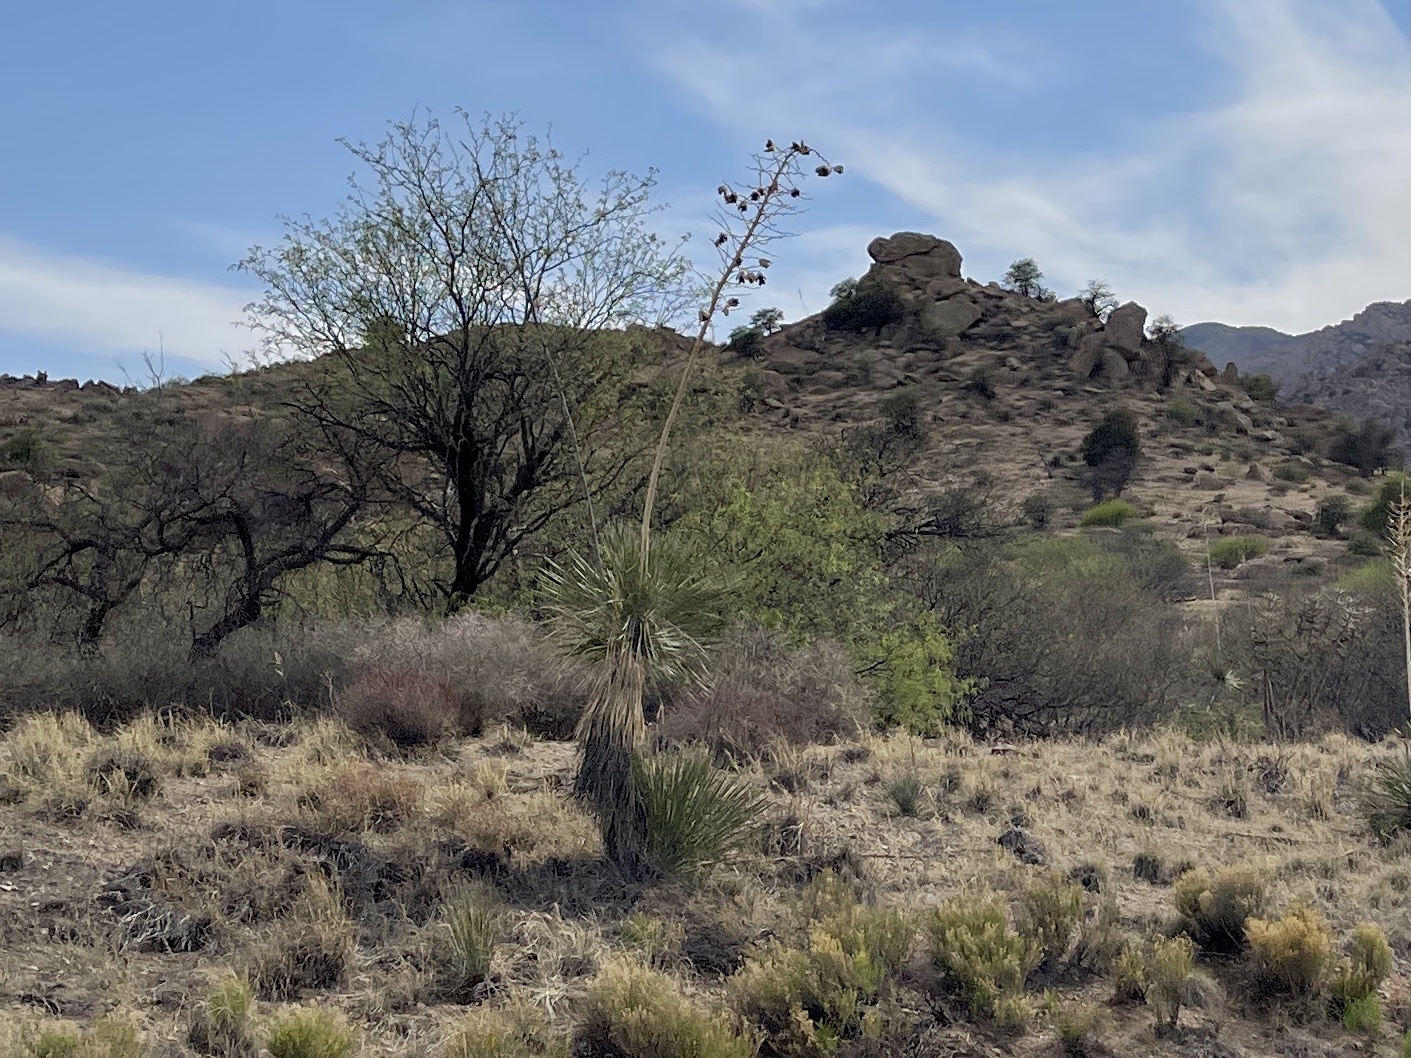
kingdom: Plantae
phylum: Tracheophyta
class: Liliopsida
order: Asparagales
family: Asparagaceae
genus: Yucca
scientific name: Yucca elata
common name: Palmella
